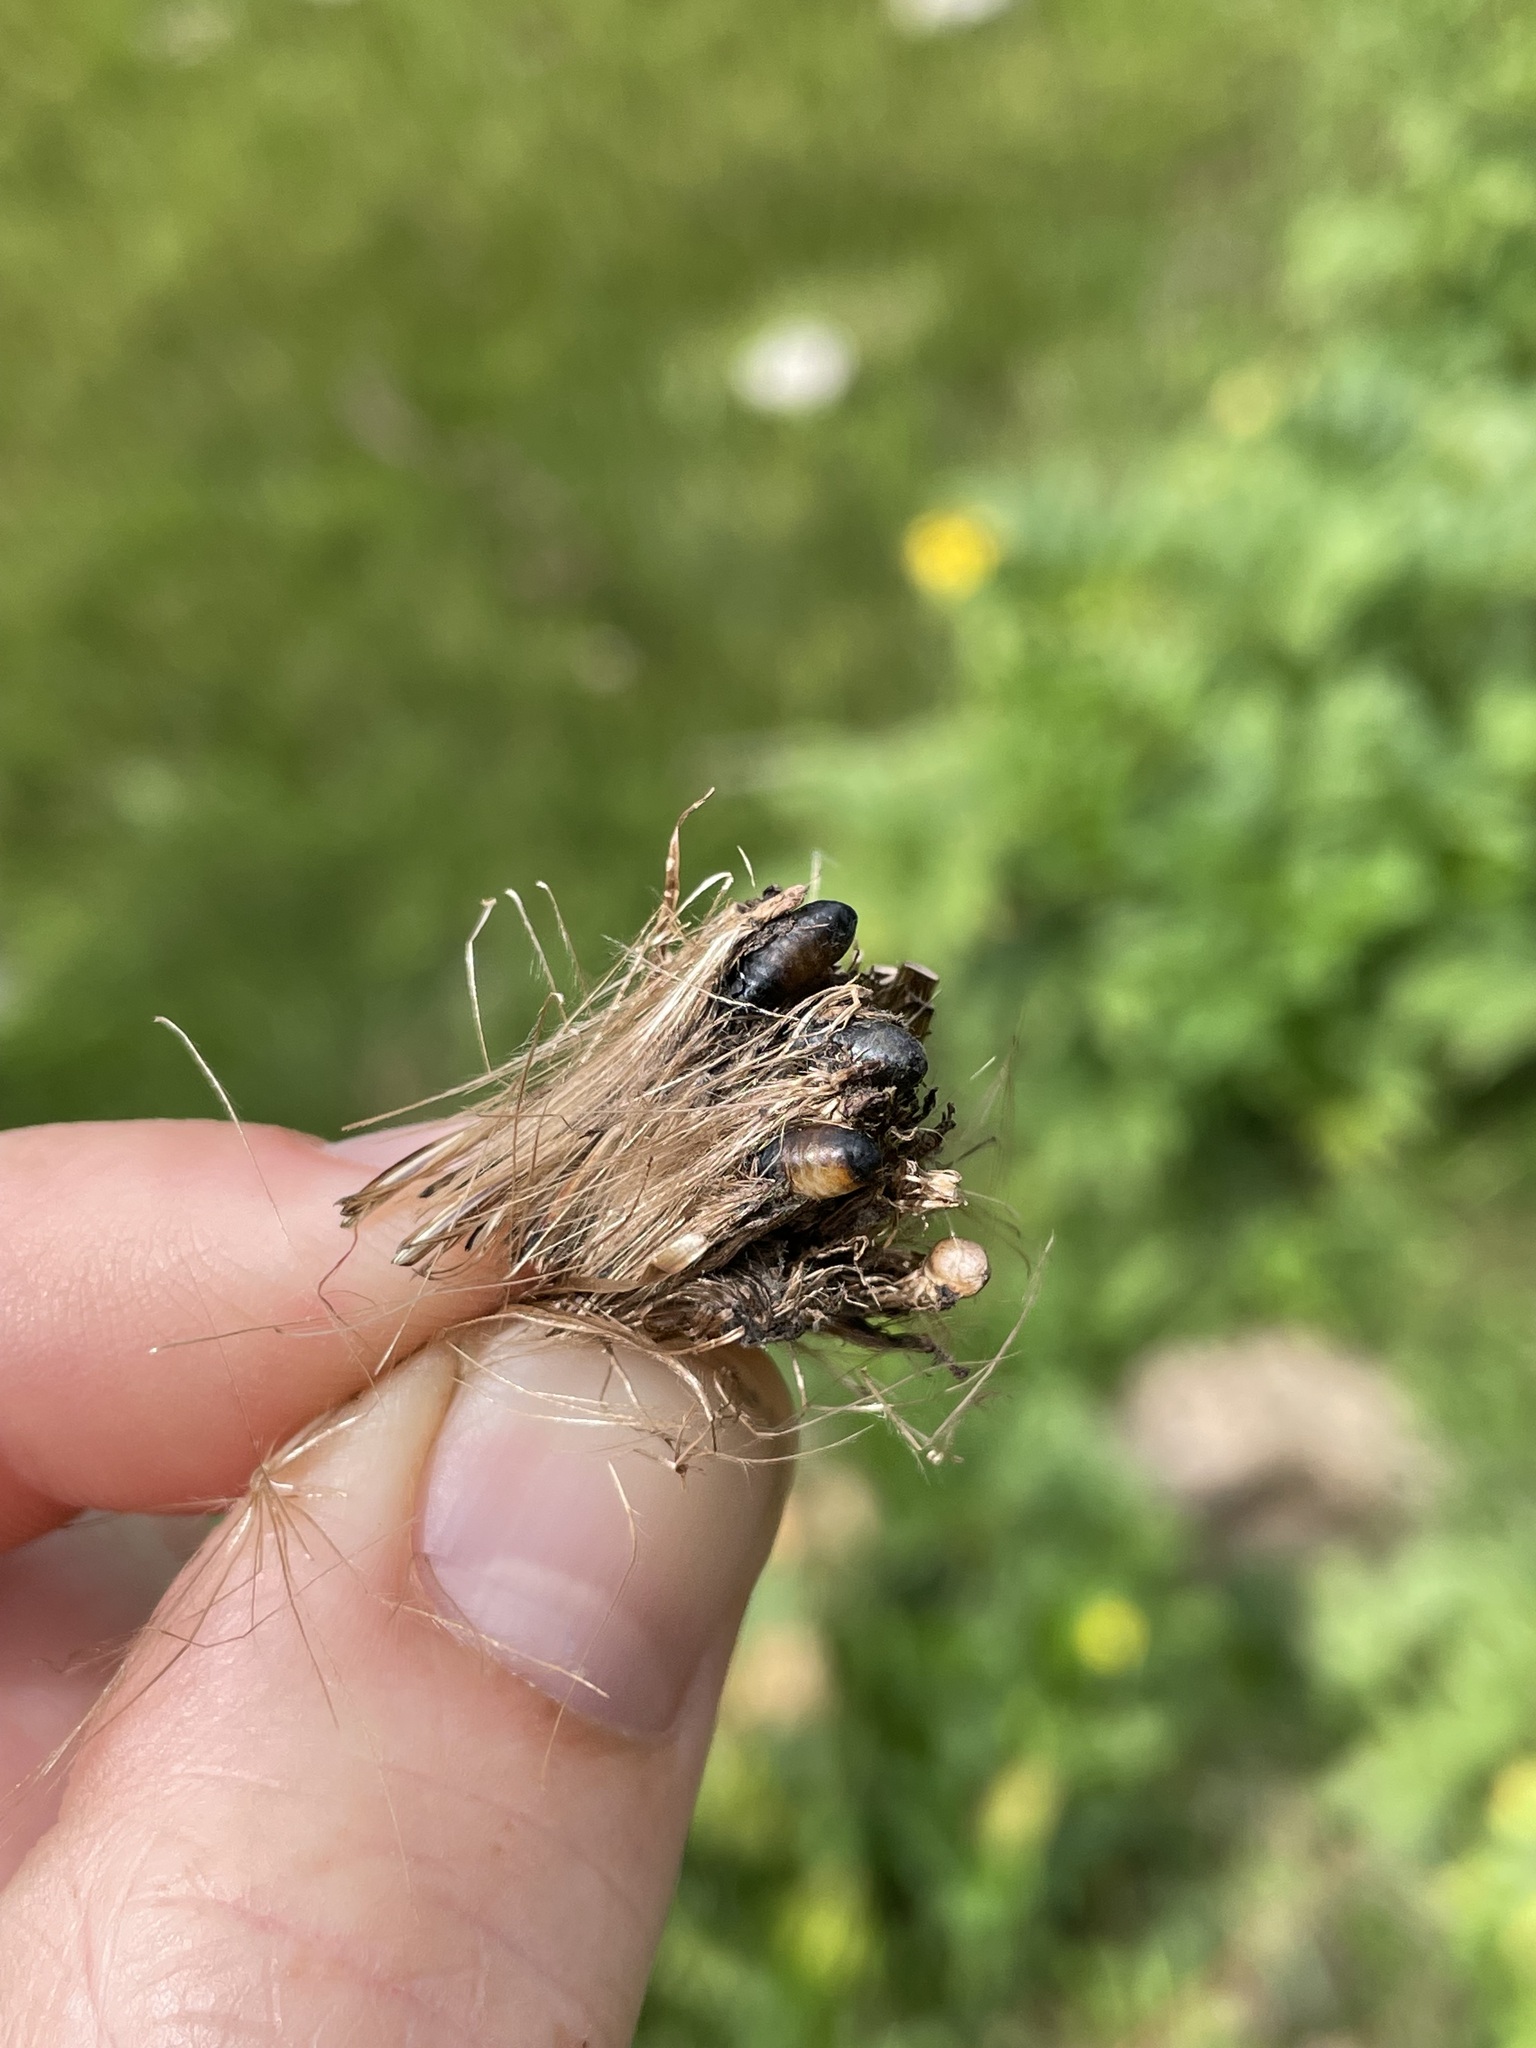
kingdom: Plantae
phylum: Tracheophyta
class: Magnoliopsida
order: Asterales
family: Asteraceae
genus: Cirsium
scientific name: Cirsium vinaceum
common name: Sacramento mountain thistle
